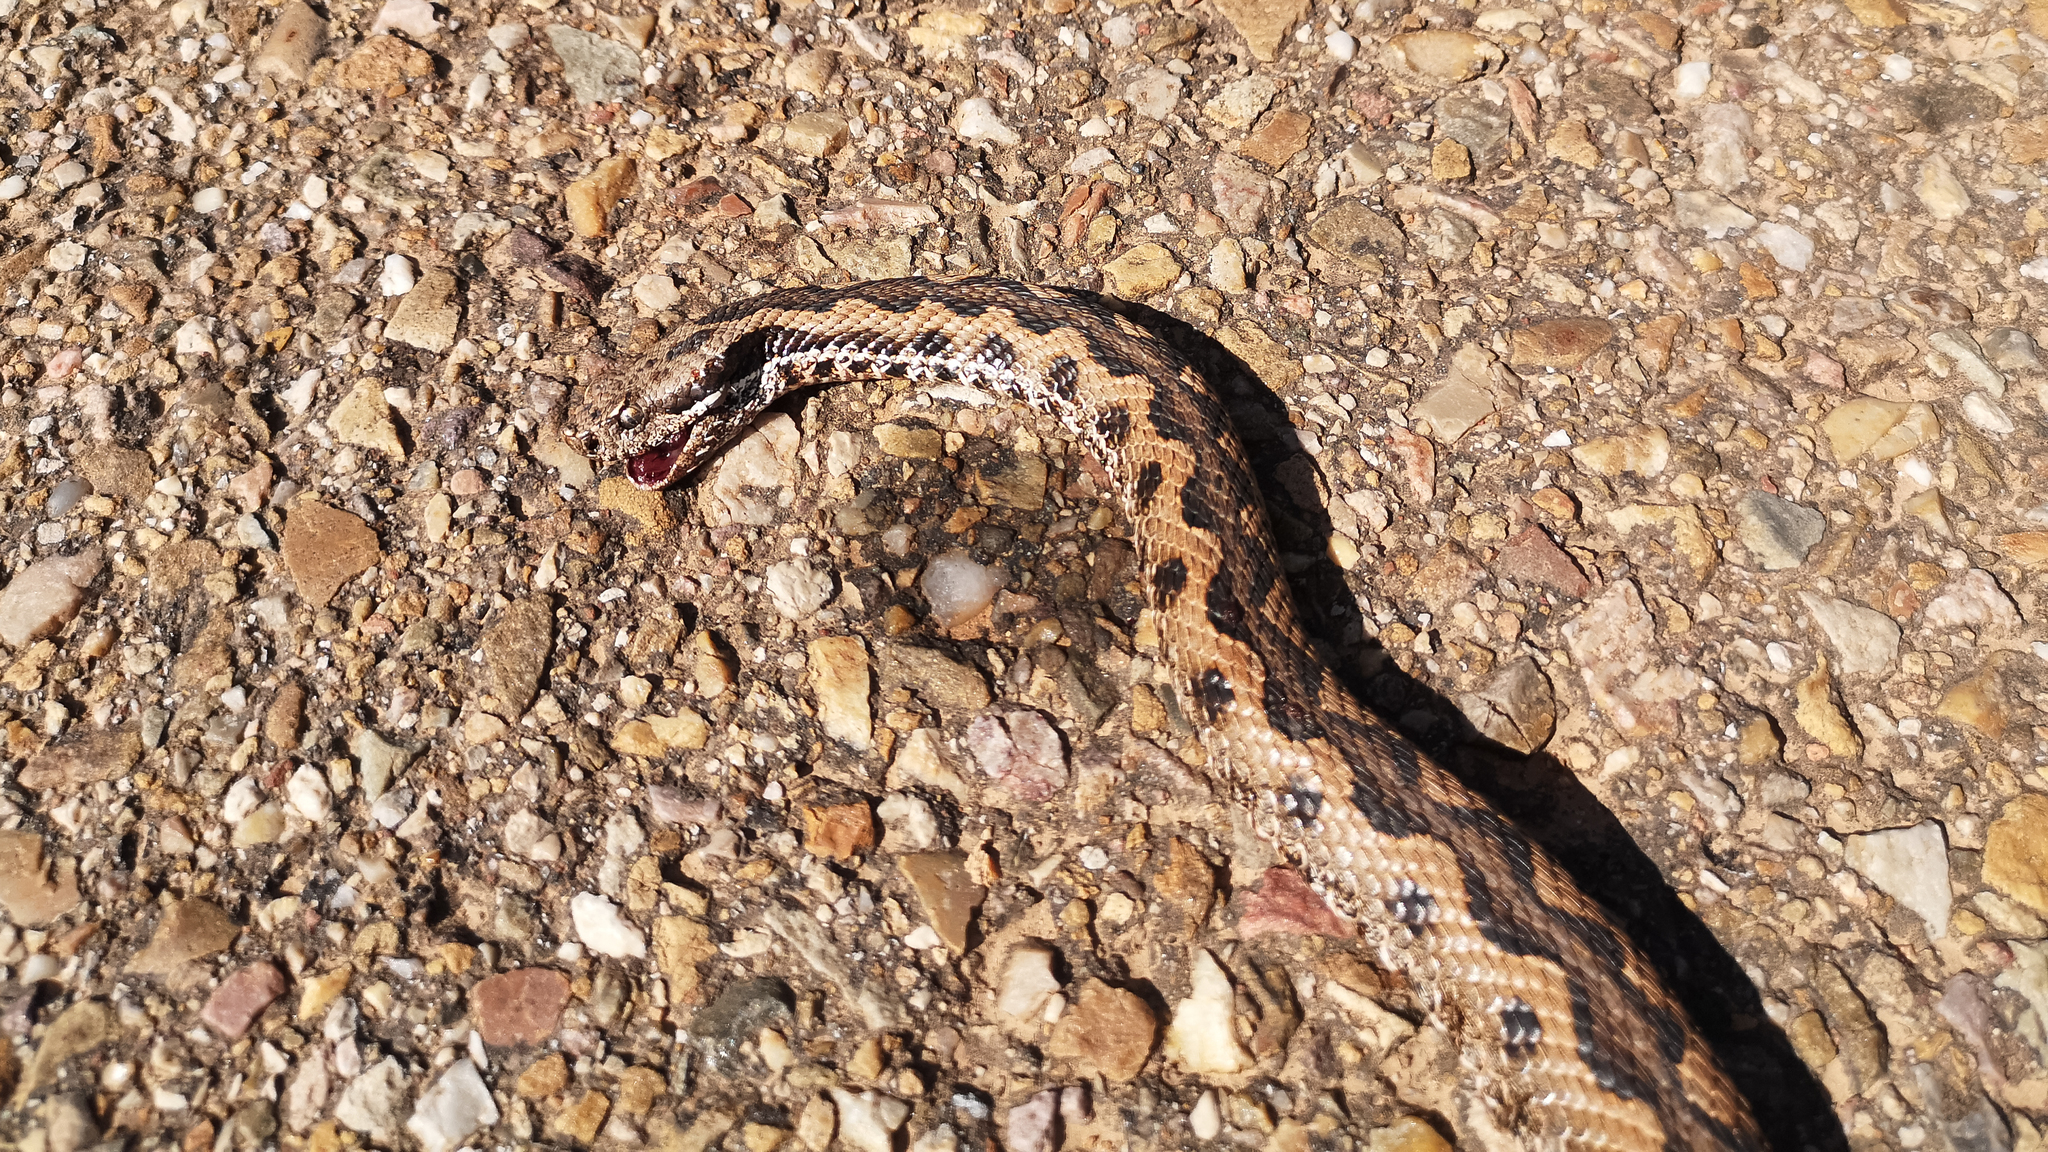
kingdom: Animalia
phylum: Chordata
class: Squamata
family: Viperidae
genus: Vipera
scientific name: Vipera latastei
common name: Lataste's viper
